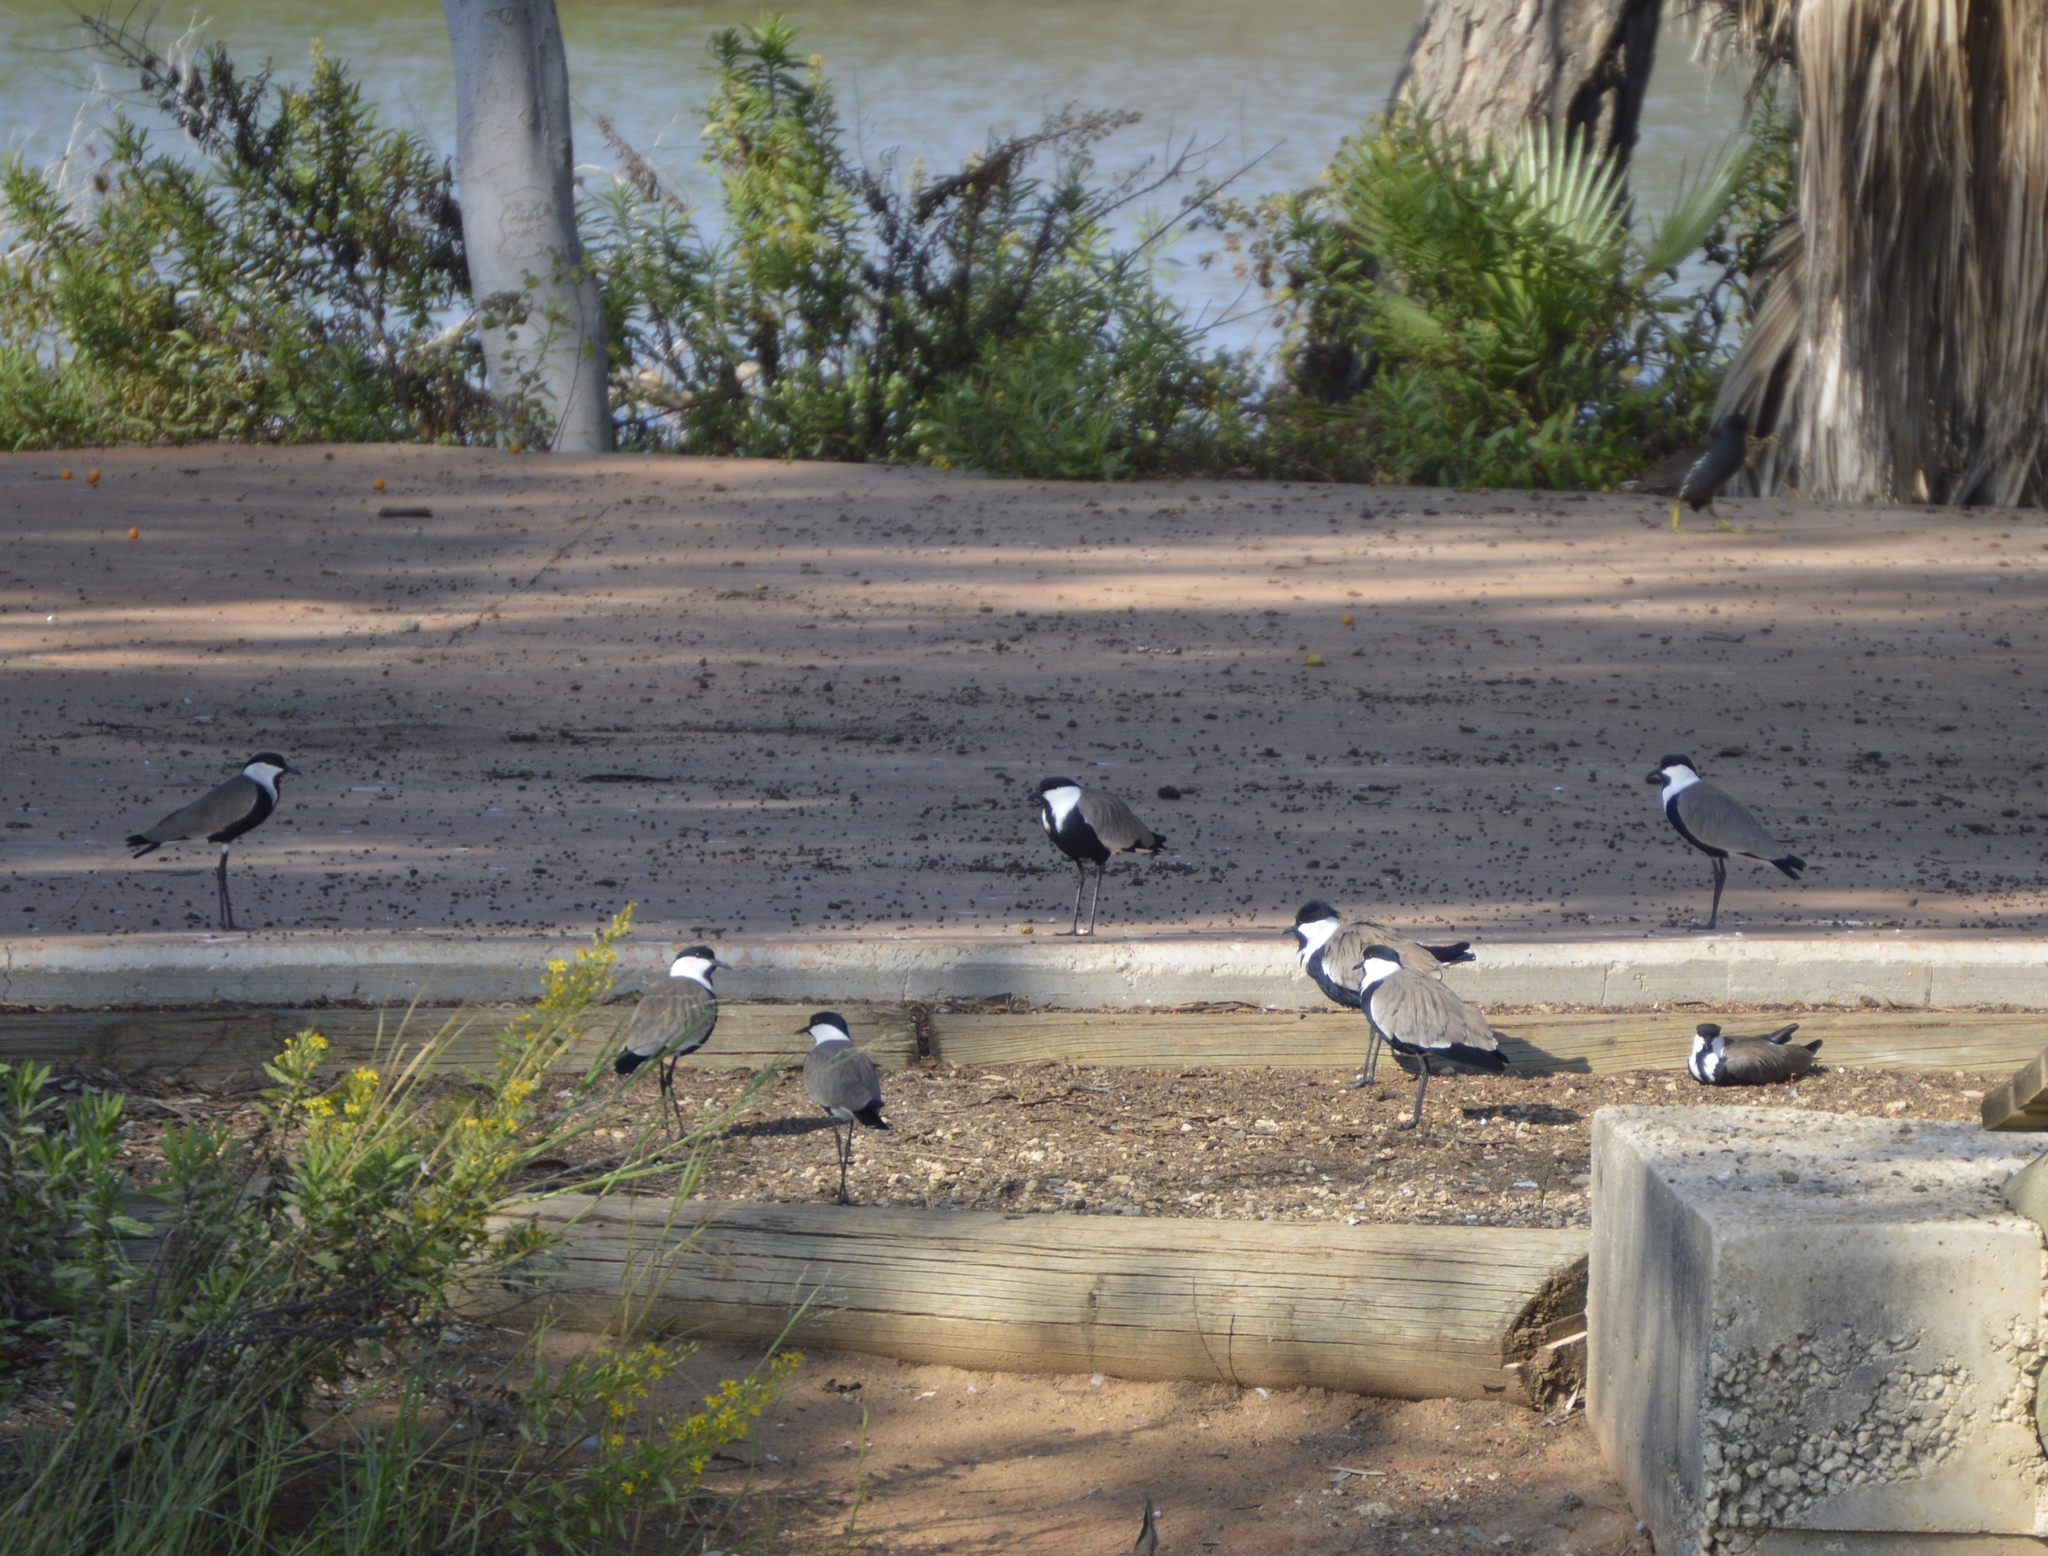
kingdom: Animalia
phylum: Chordata
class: Aves
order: Charadriiformes
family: Charadriidae
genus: Vanellus
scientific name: Vanellus spinosus
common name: Spur-winged lapwing
